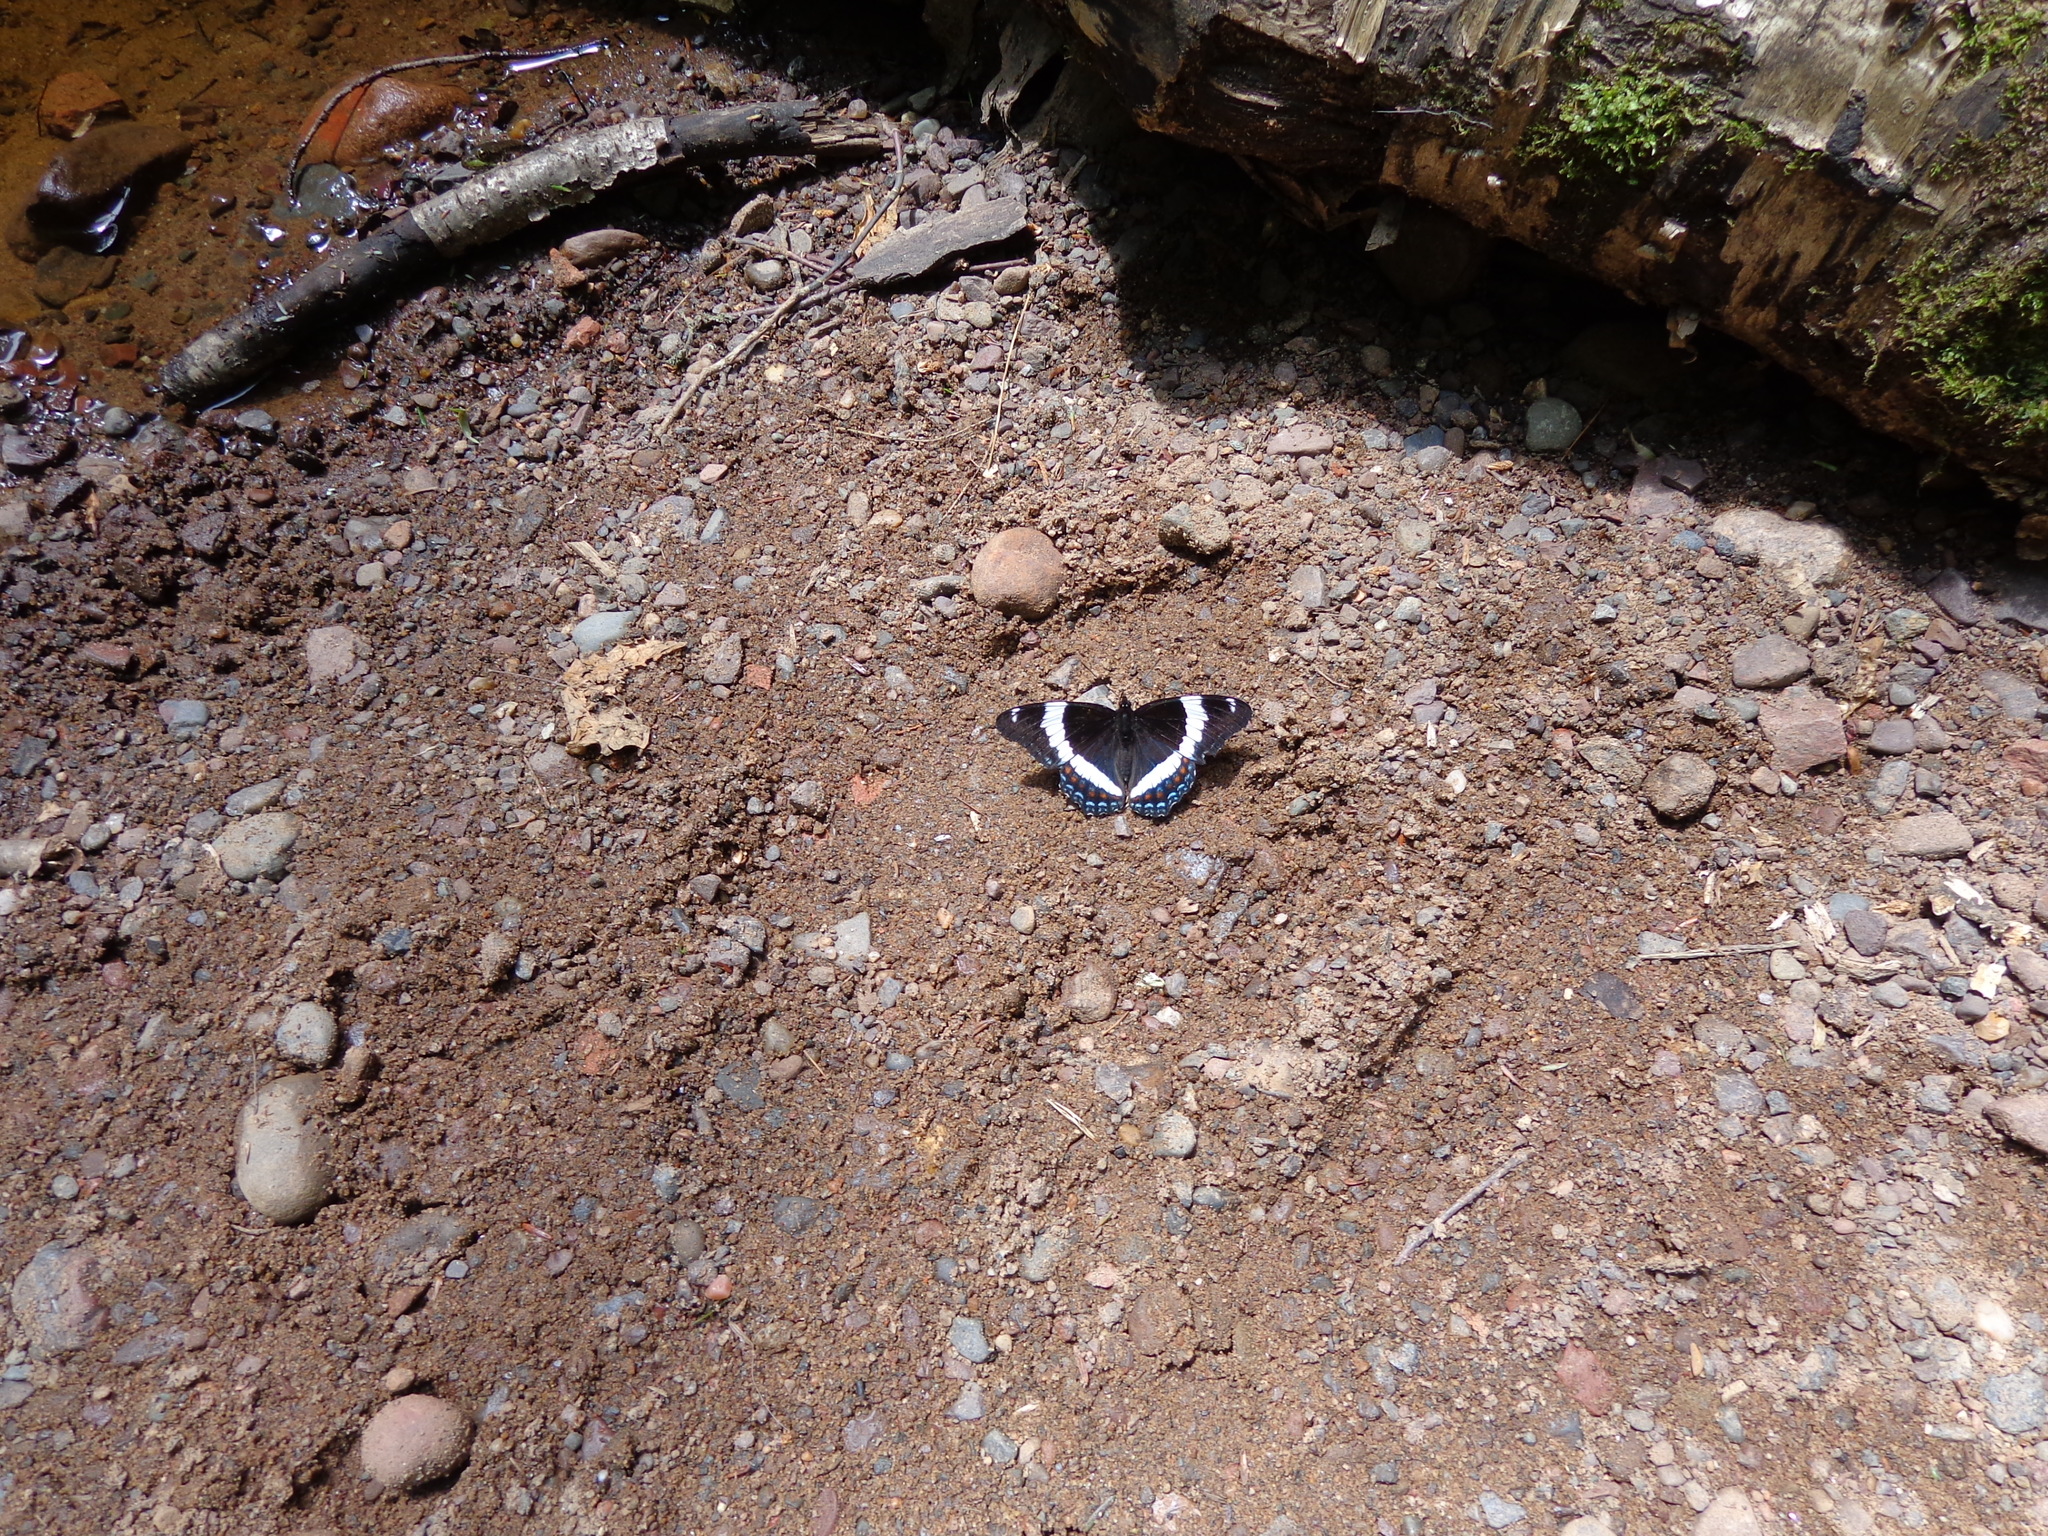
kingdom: Animalia
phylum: Arthropoda
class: Insecta
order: Lepidoptera
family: Nymphalidae
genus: Limenitis
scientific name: Limenitis arthemis
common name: Red-spotted admiral
